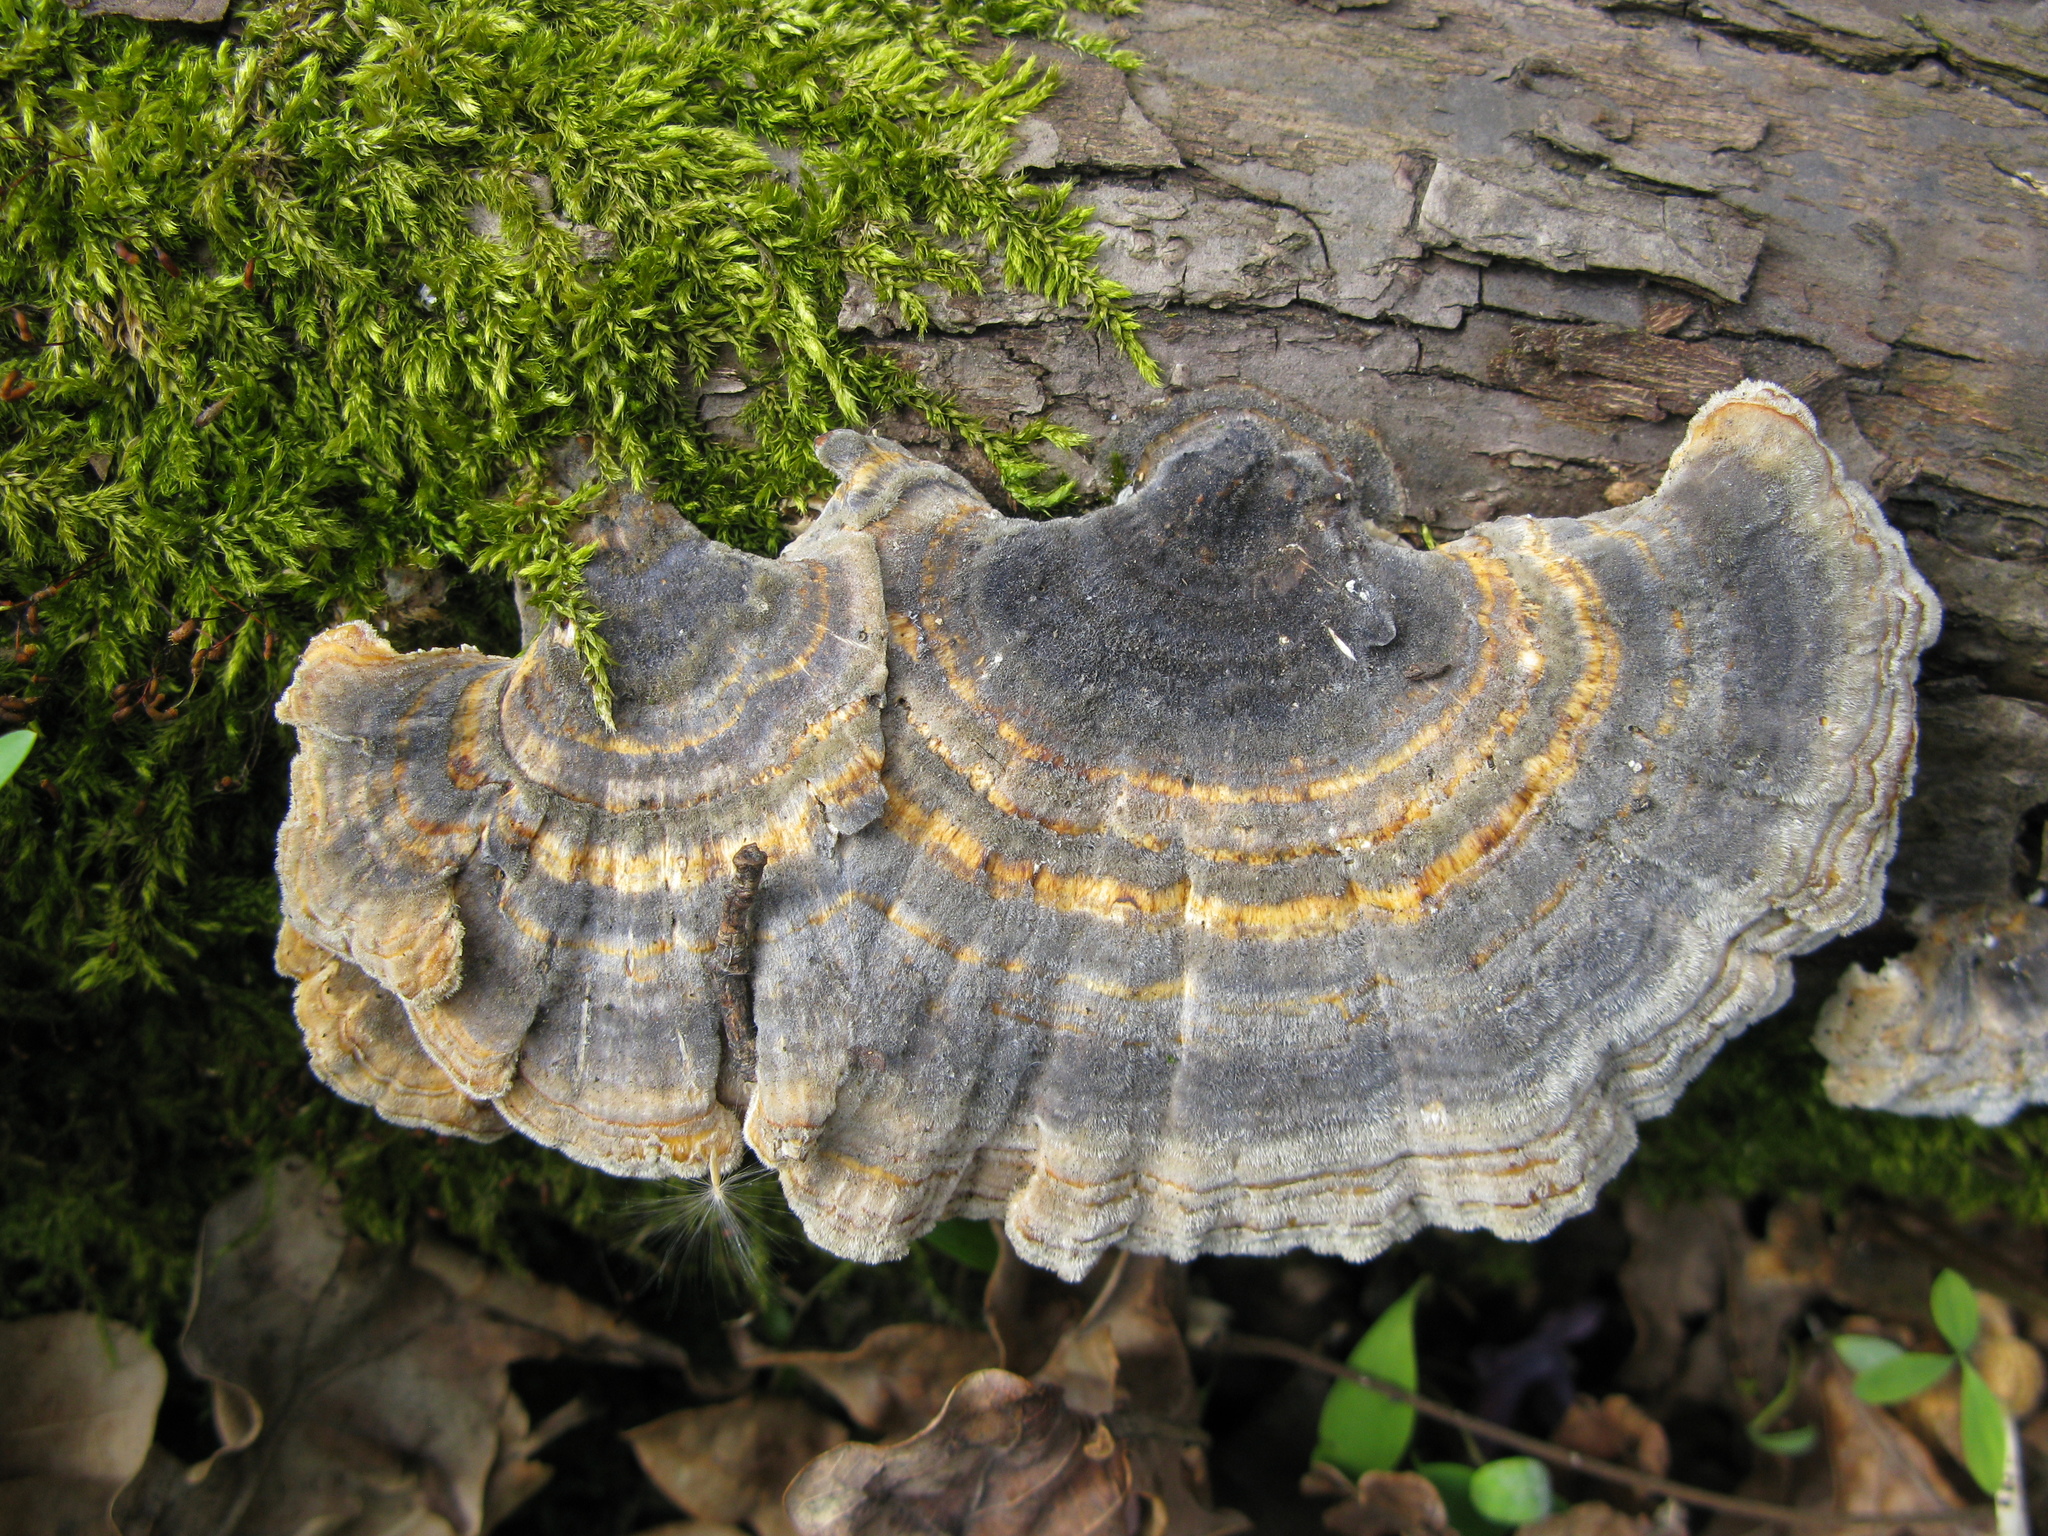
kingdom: Fungi
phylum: Basidiomycota
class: Agaricomycetes
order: Polyporales
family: Polyporaceae
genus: Trametes
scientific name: Trametes versicolor
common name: Turkeytail
